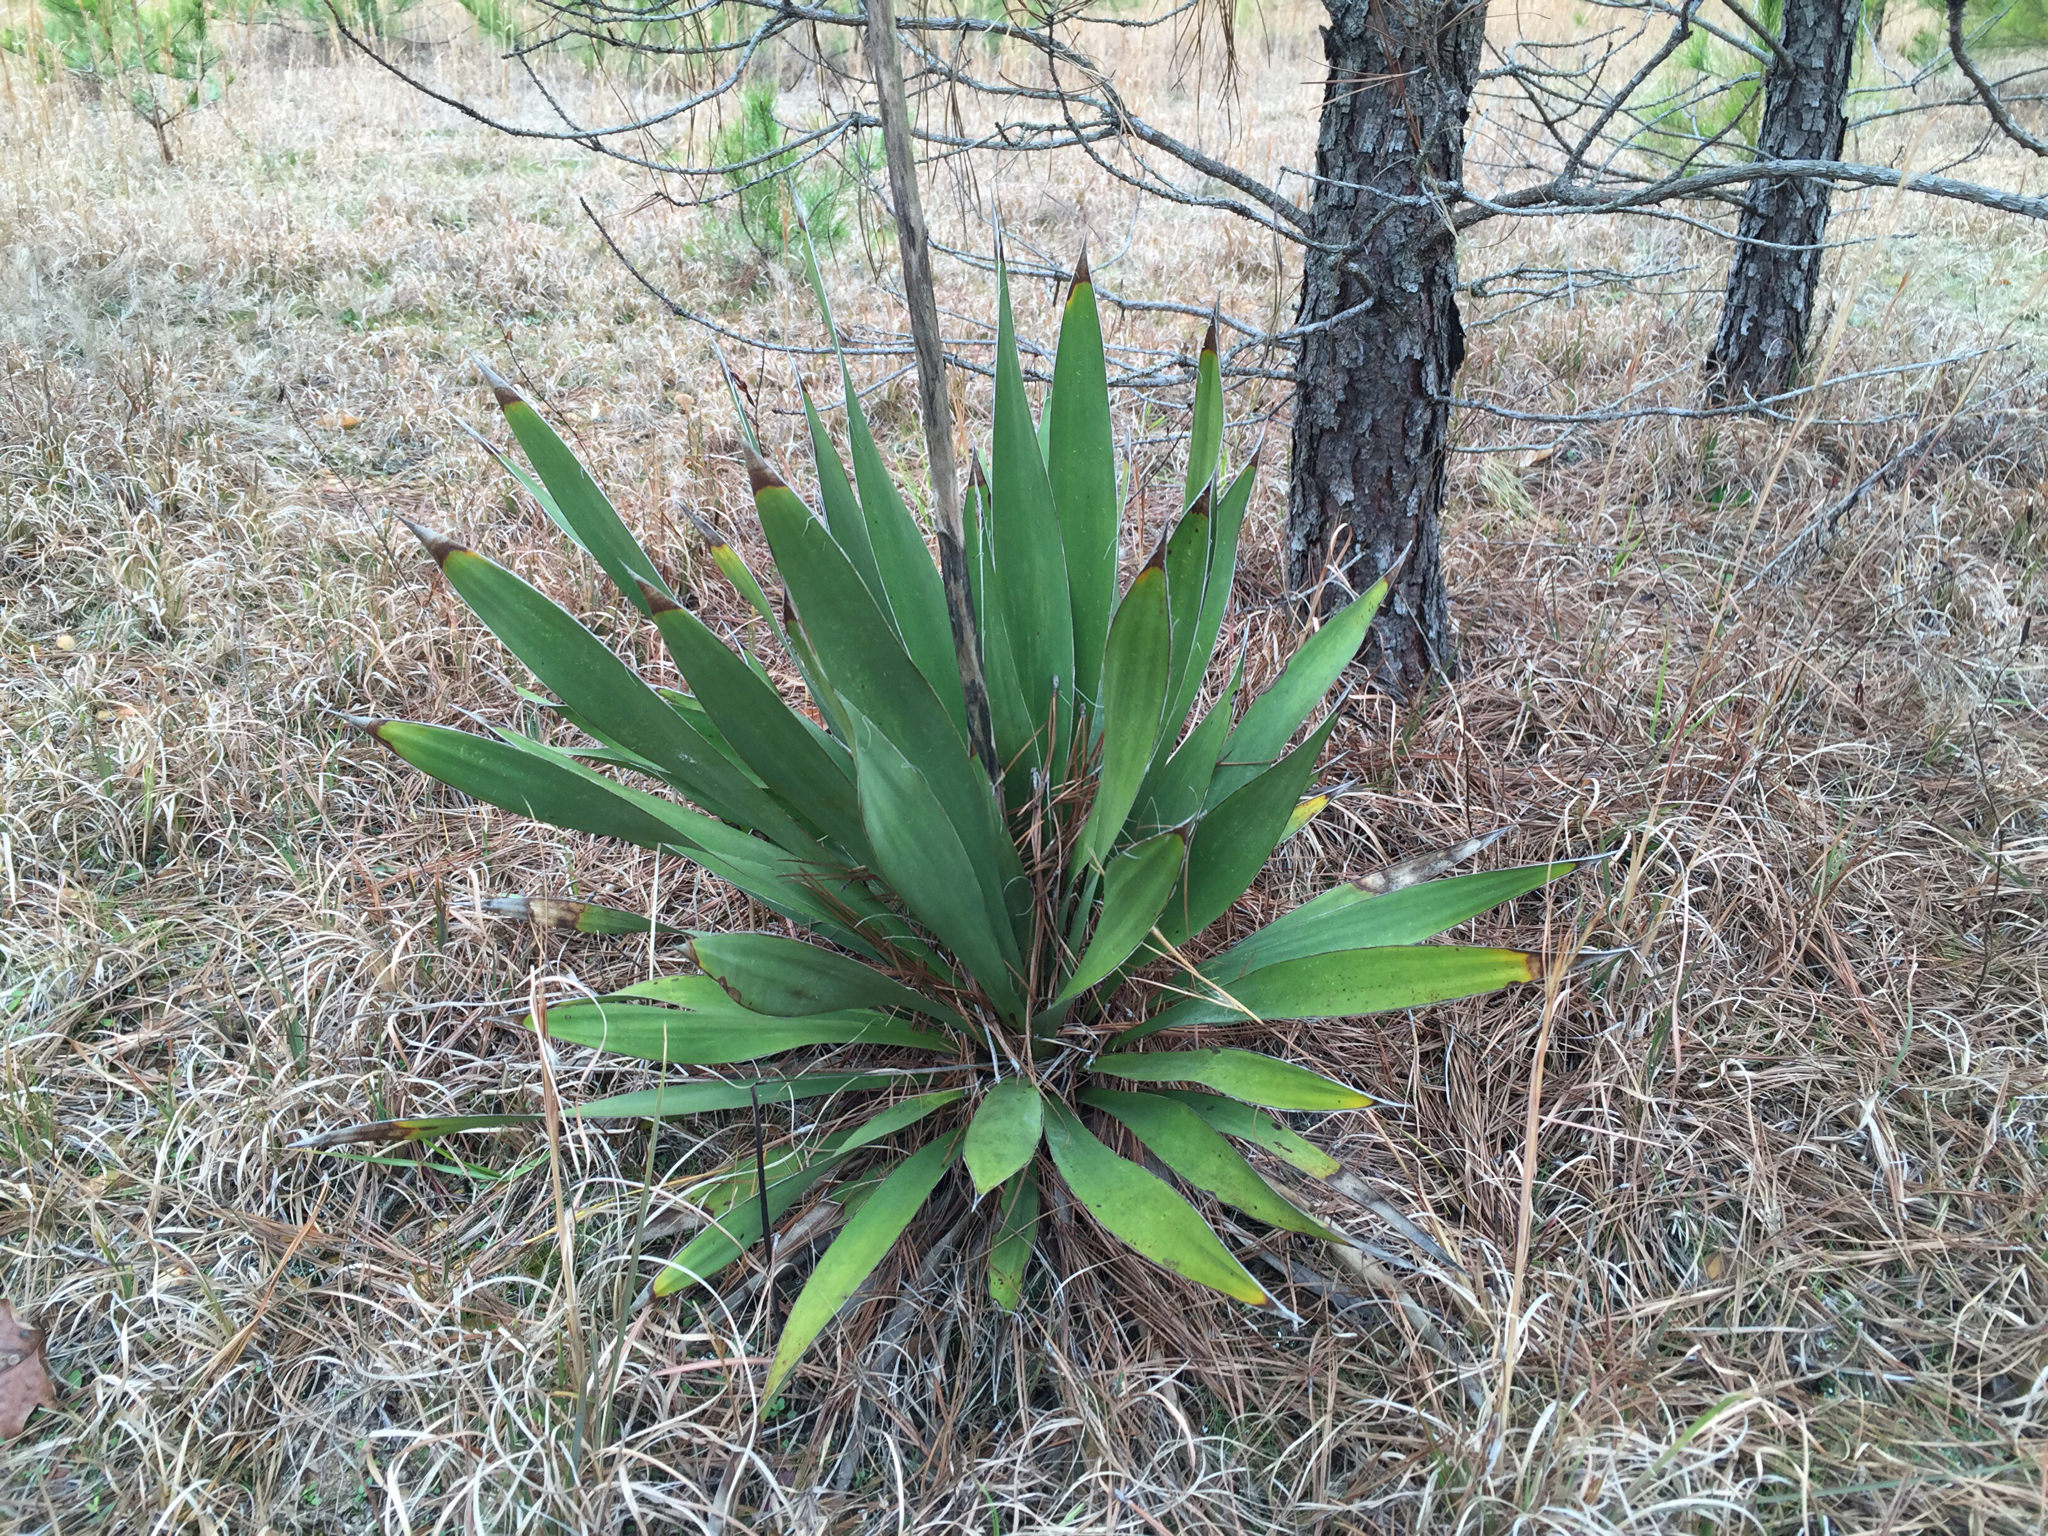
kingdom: Plantae
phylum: Tracheophyta
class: Liliopsida
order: Asparagales
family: Asparagaceae
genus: Yucca
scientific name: Yucca filamentosa
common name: Adam's-needle
